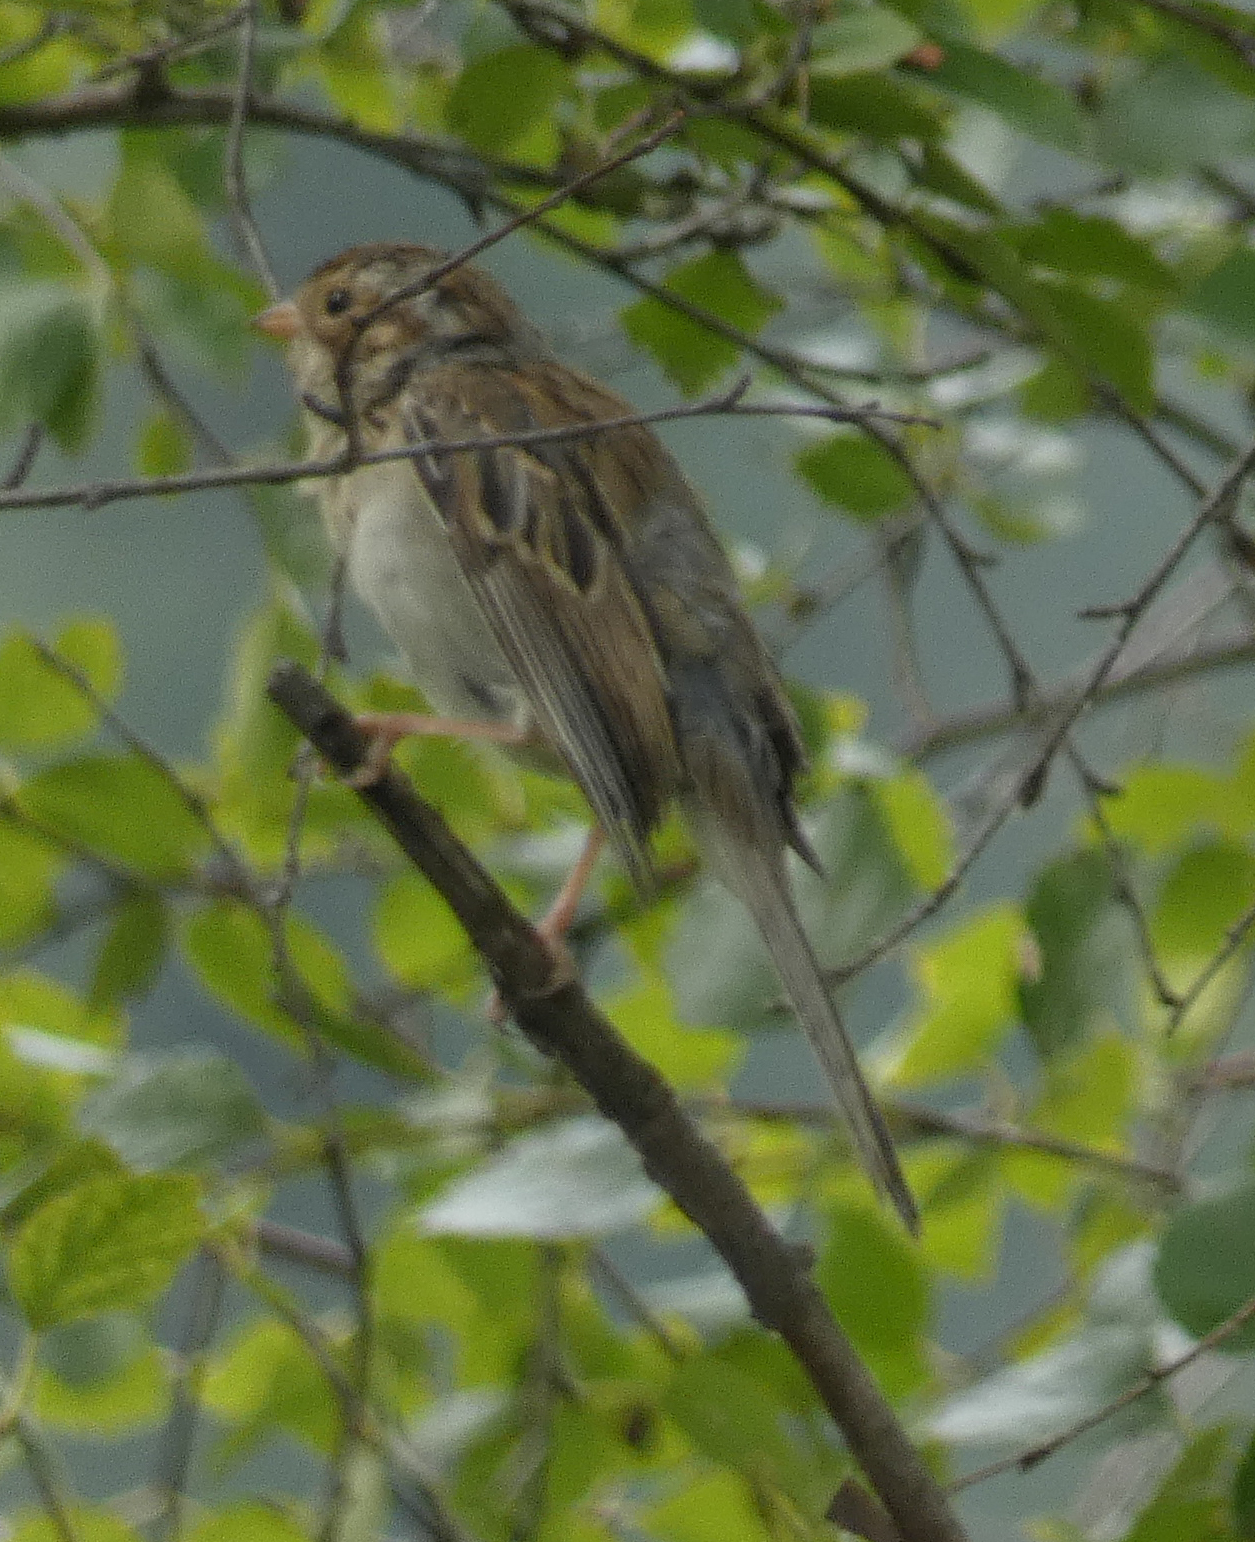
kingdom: Animalia
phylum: Chordata
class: Aves
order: Passeriformes
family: Passerellidae
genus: Spizella
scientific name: Spizella pallida
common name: Clay-colored sparrow
